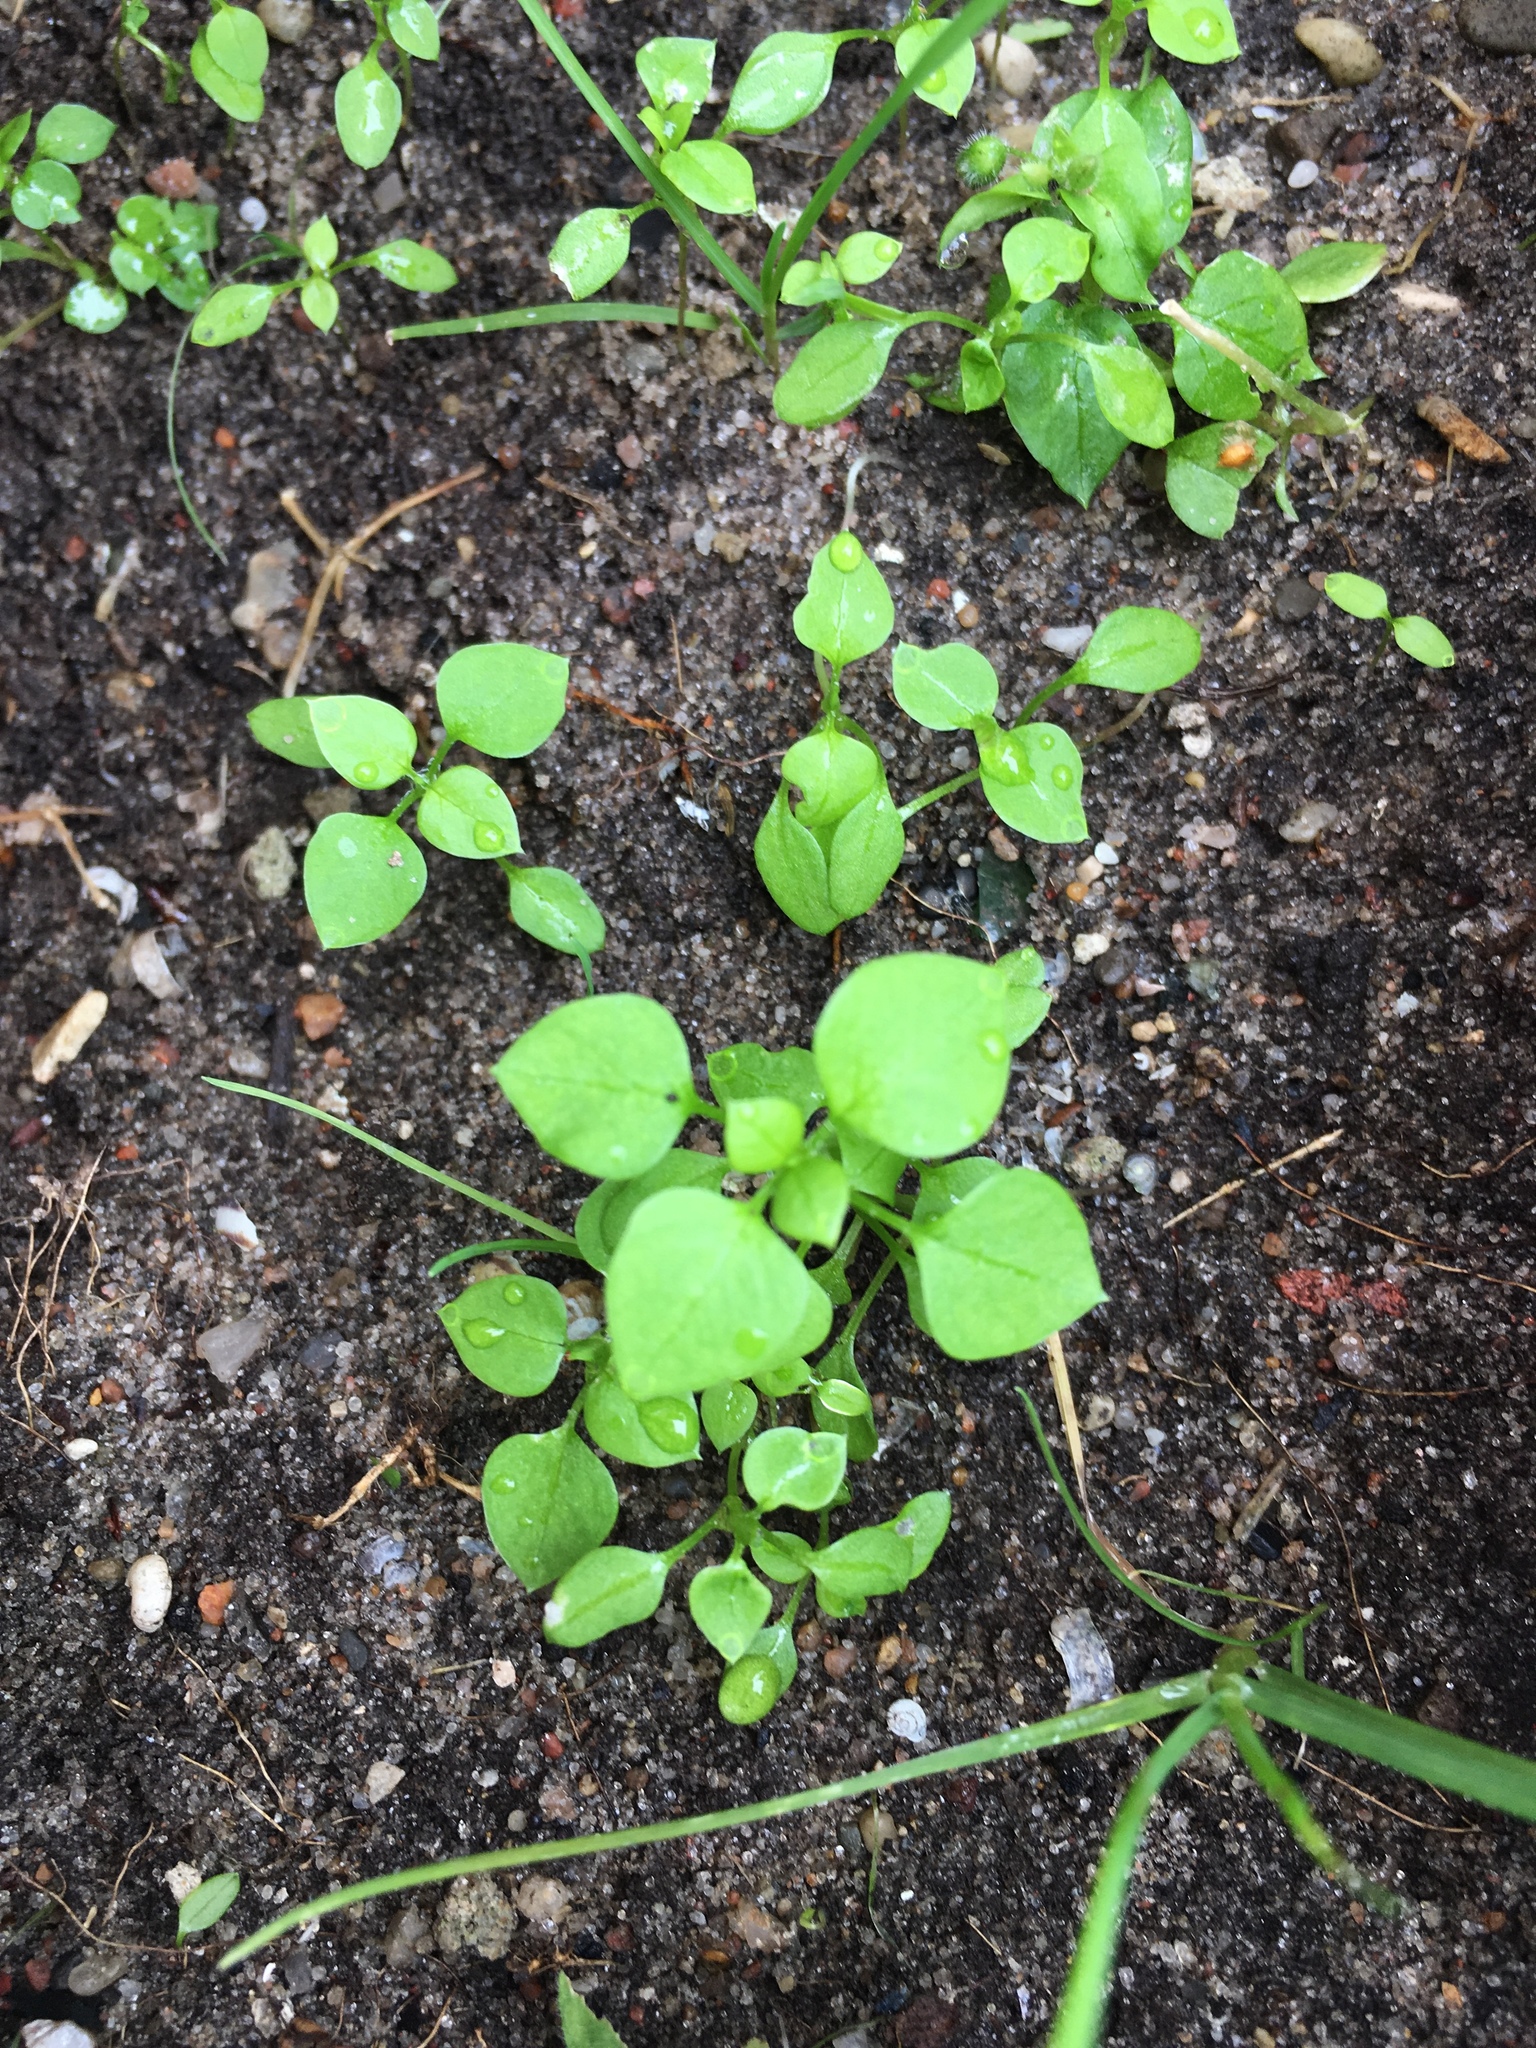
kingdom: Plantae
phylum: Tracheophyta
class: Magnoliopsida
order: Caryophyllales
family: Caryophyllaceae
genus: Stellaria
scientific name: Stellaria media
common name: Common chickweed
